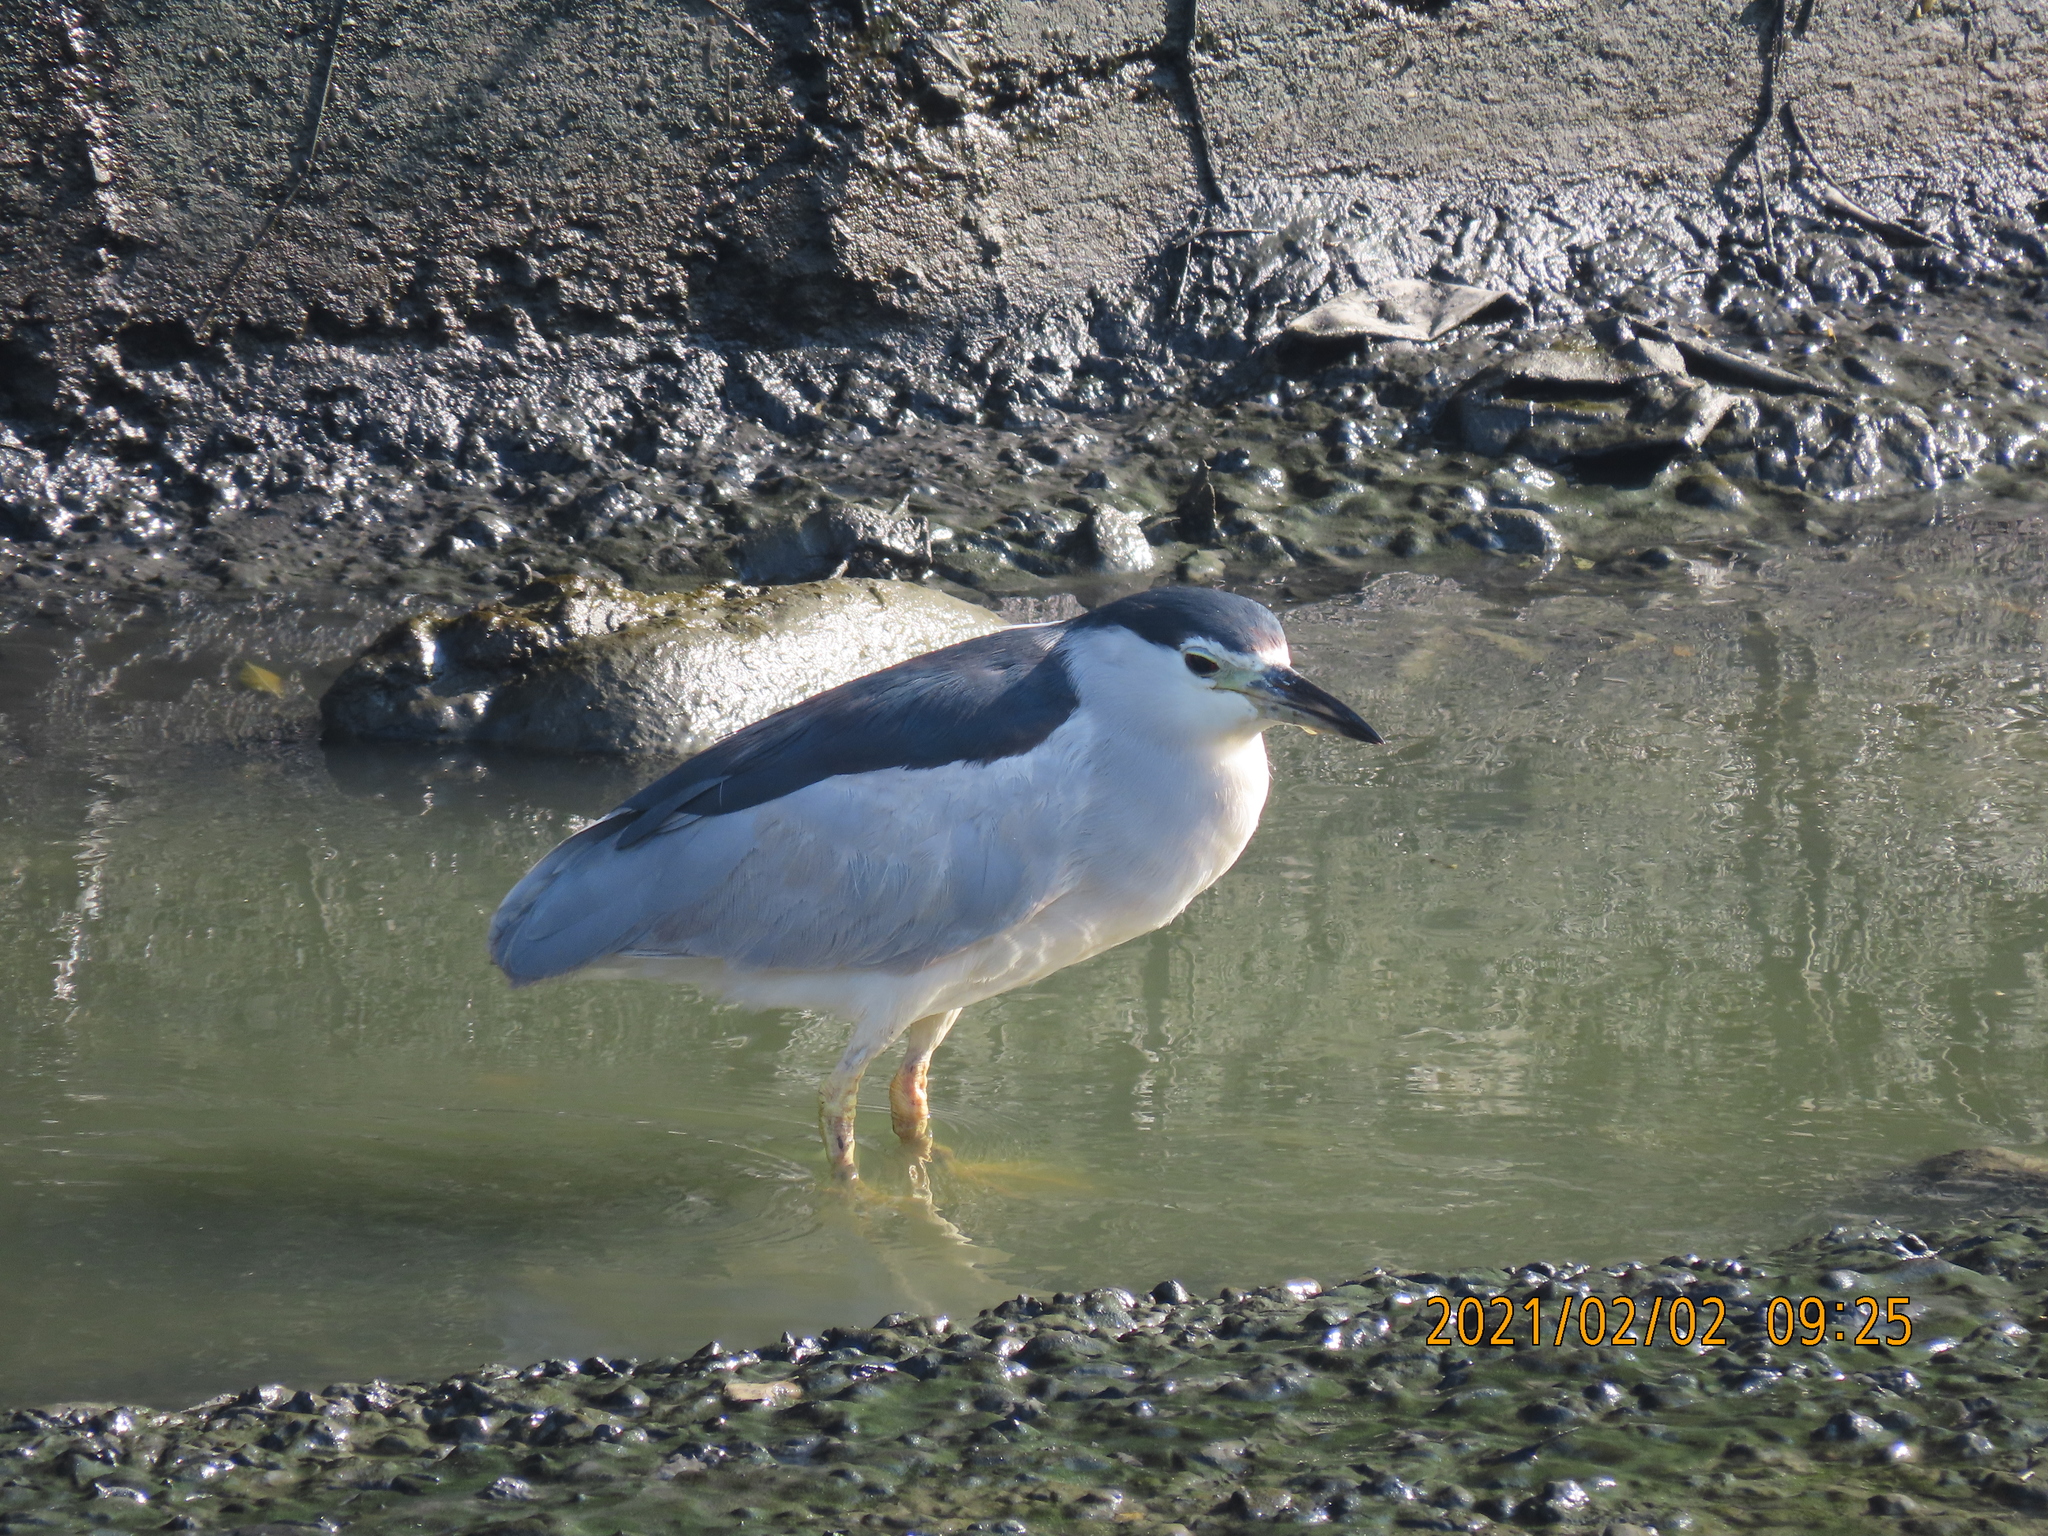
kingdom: Animalia
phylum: Chordata
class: Aves
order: Pelecaniformes
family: Ardeidae
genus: Nycticorax
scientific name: Nycticorax nycticorax
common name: Black-crowned night heron
